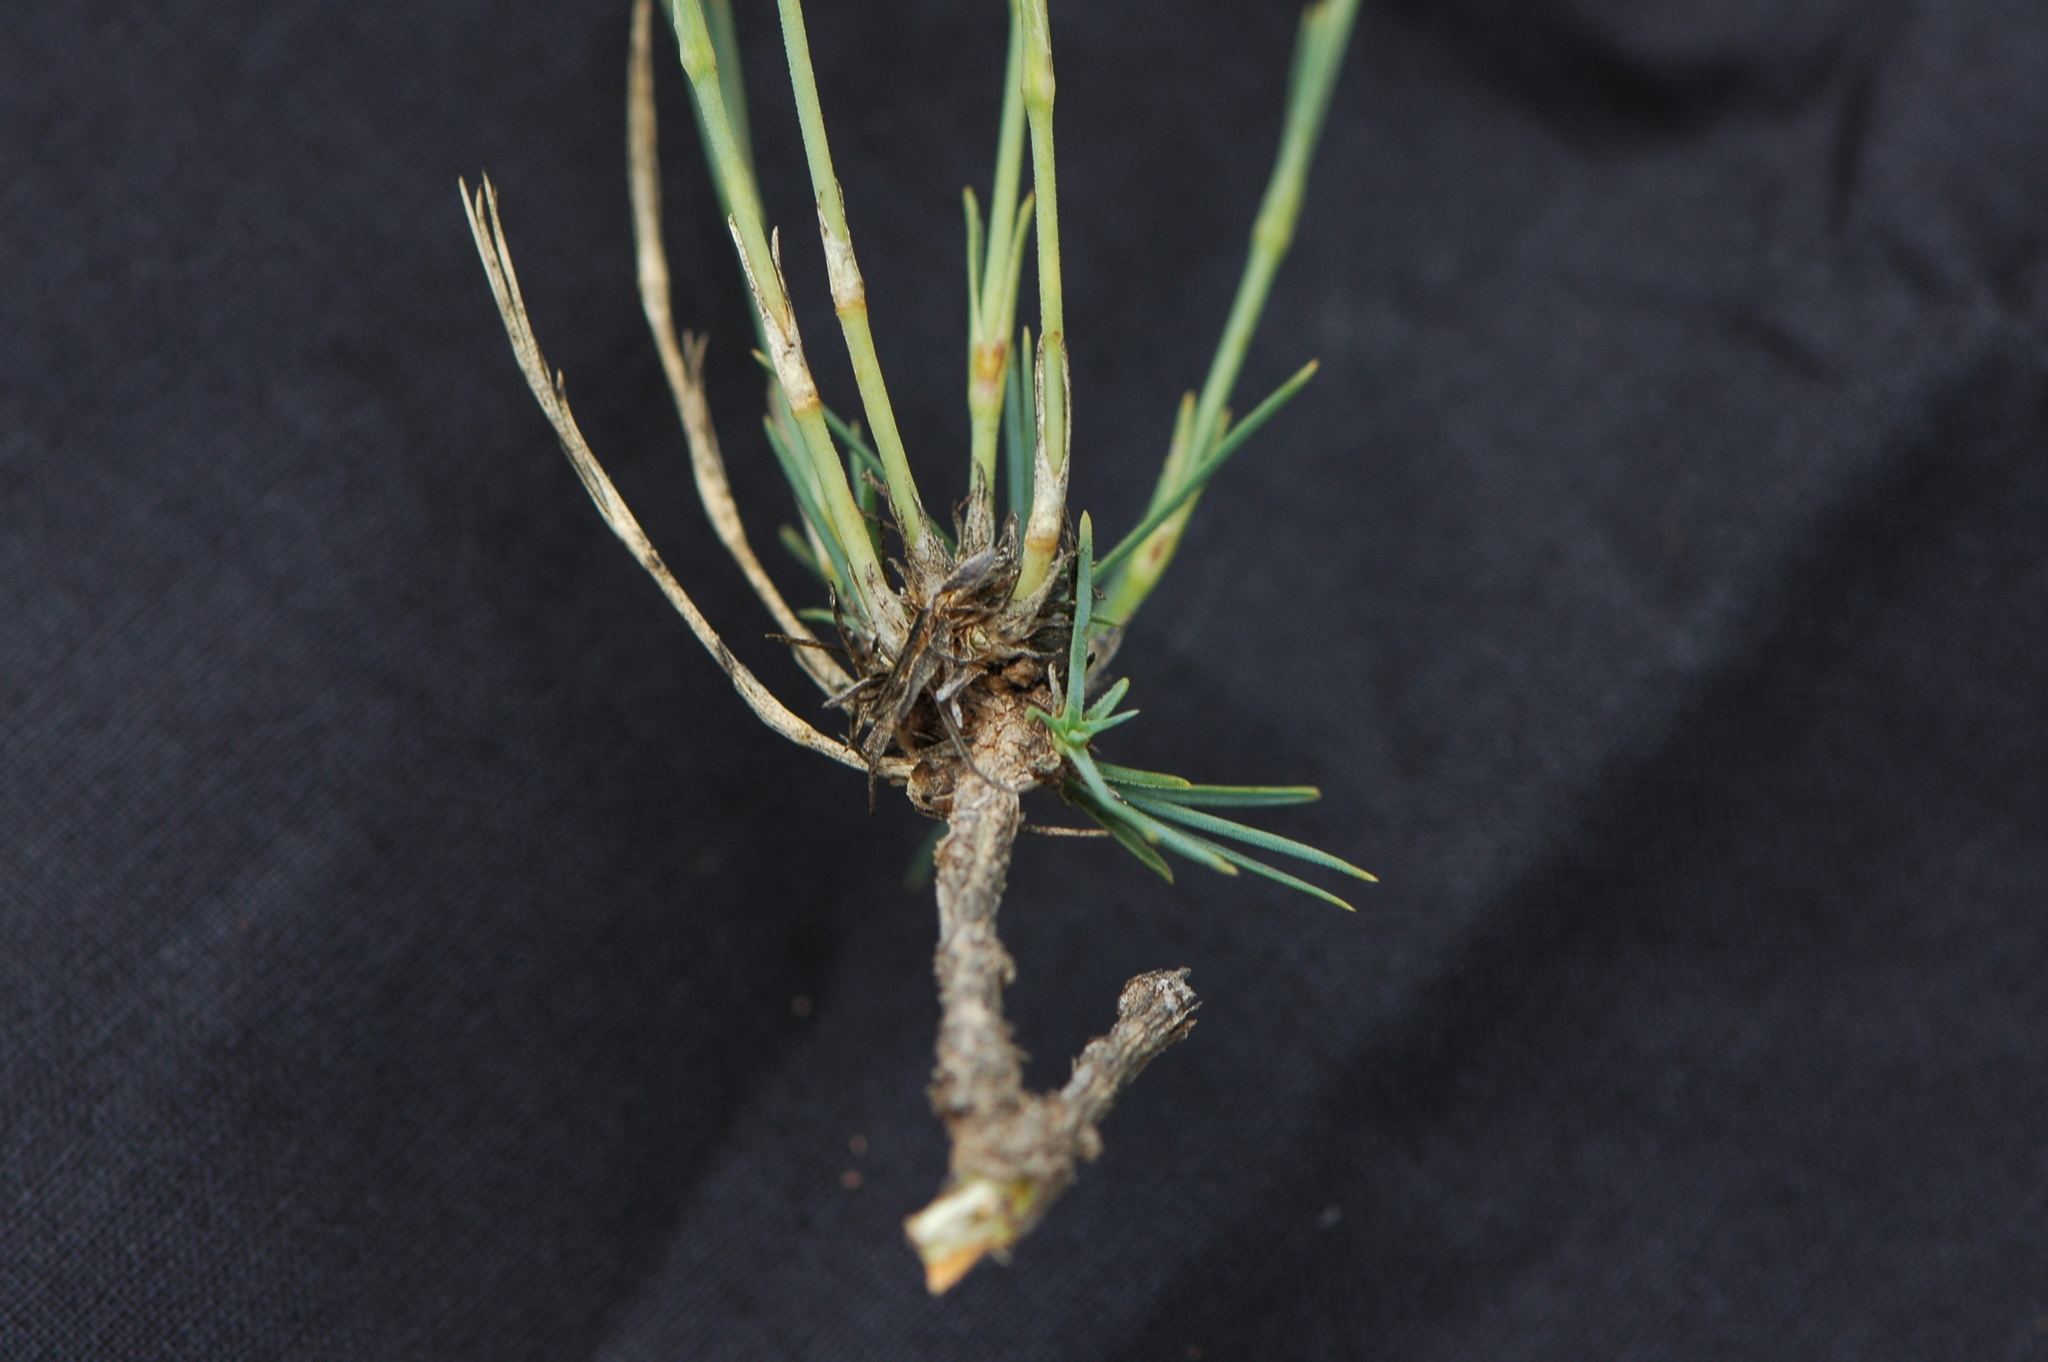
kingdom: Plantae
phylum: Tracheophyta
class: Magnoliopsida
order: Caryophyllales
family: Caryophyllaceae
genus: Dianthus
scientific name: Dianthus broteri
